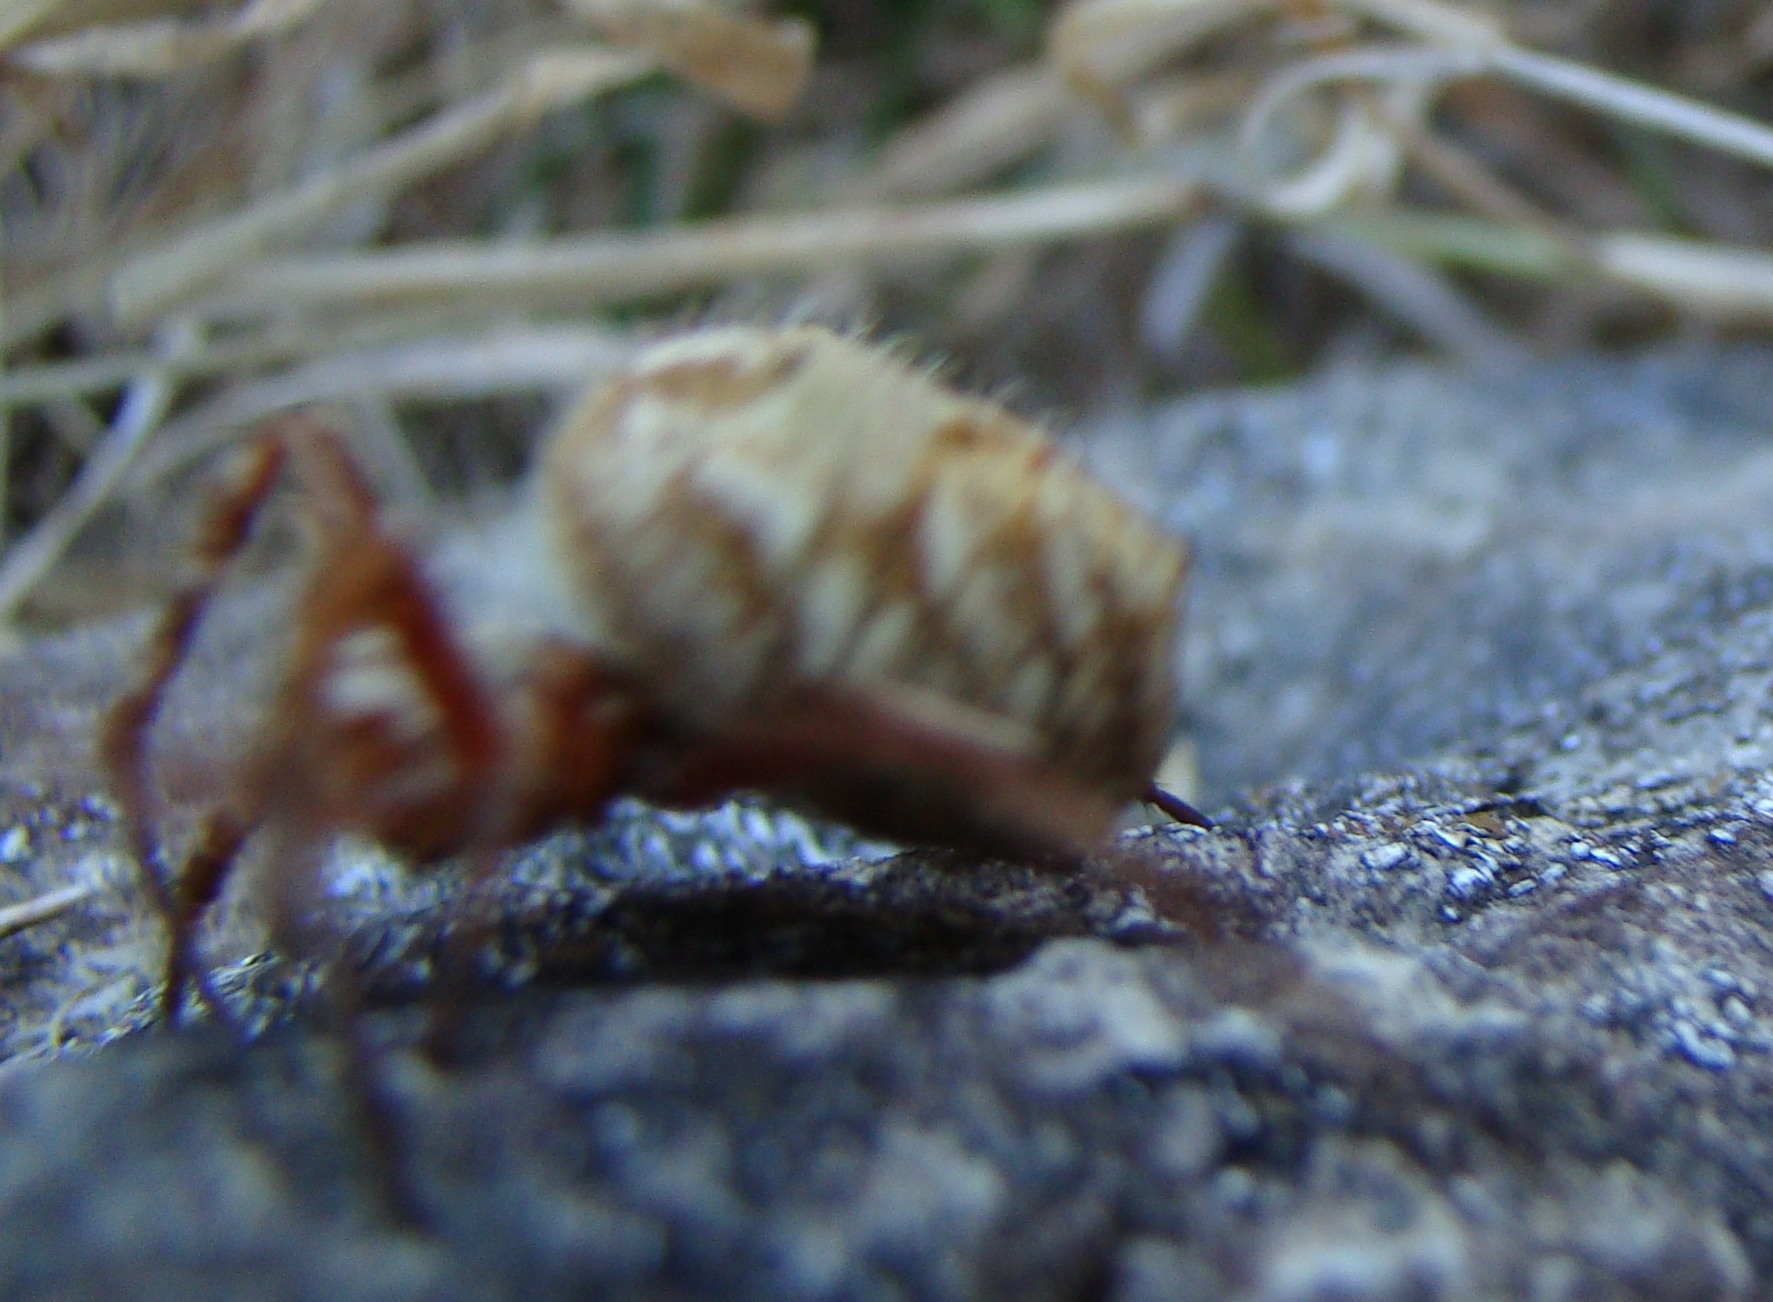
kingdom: Animalia
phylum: Arthropoda
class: Arachnida
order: Araneae
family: Araneidae
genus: Backobourkia
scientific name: Backobourkia brouni
